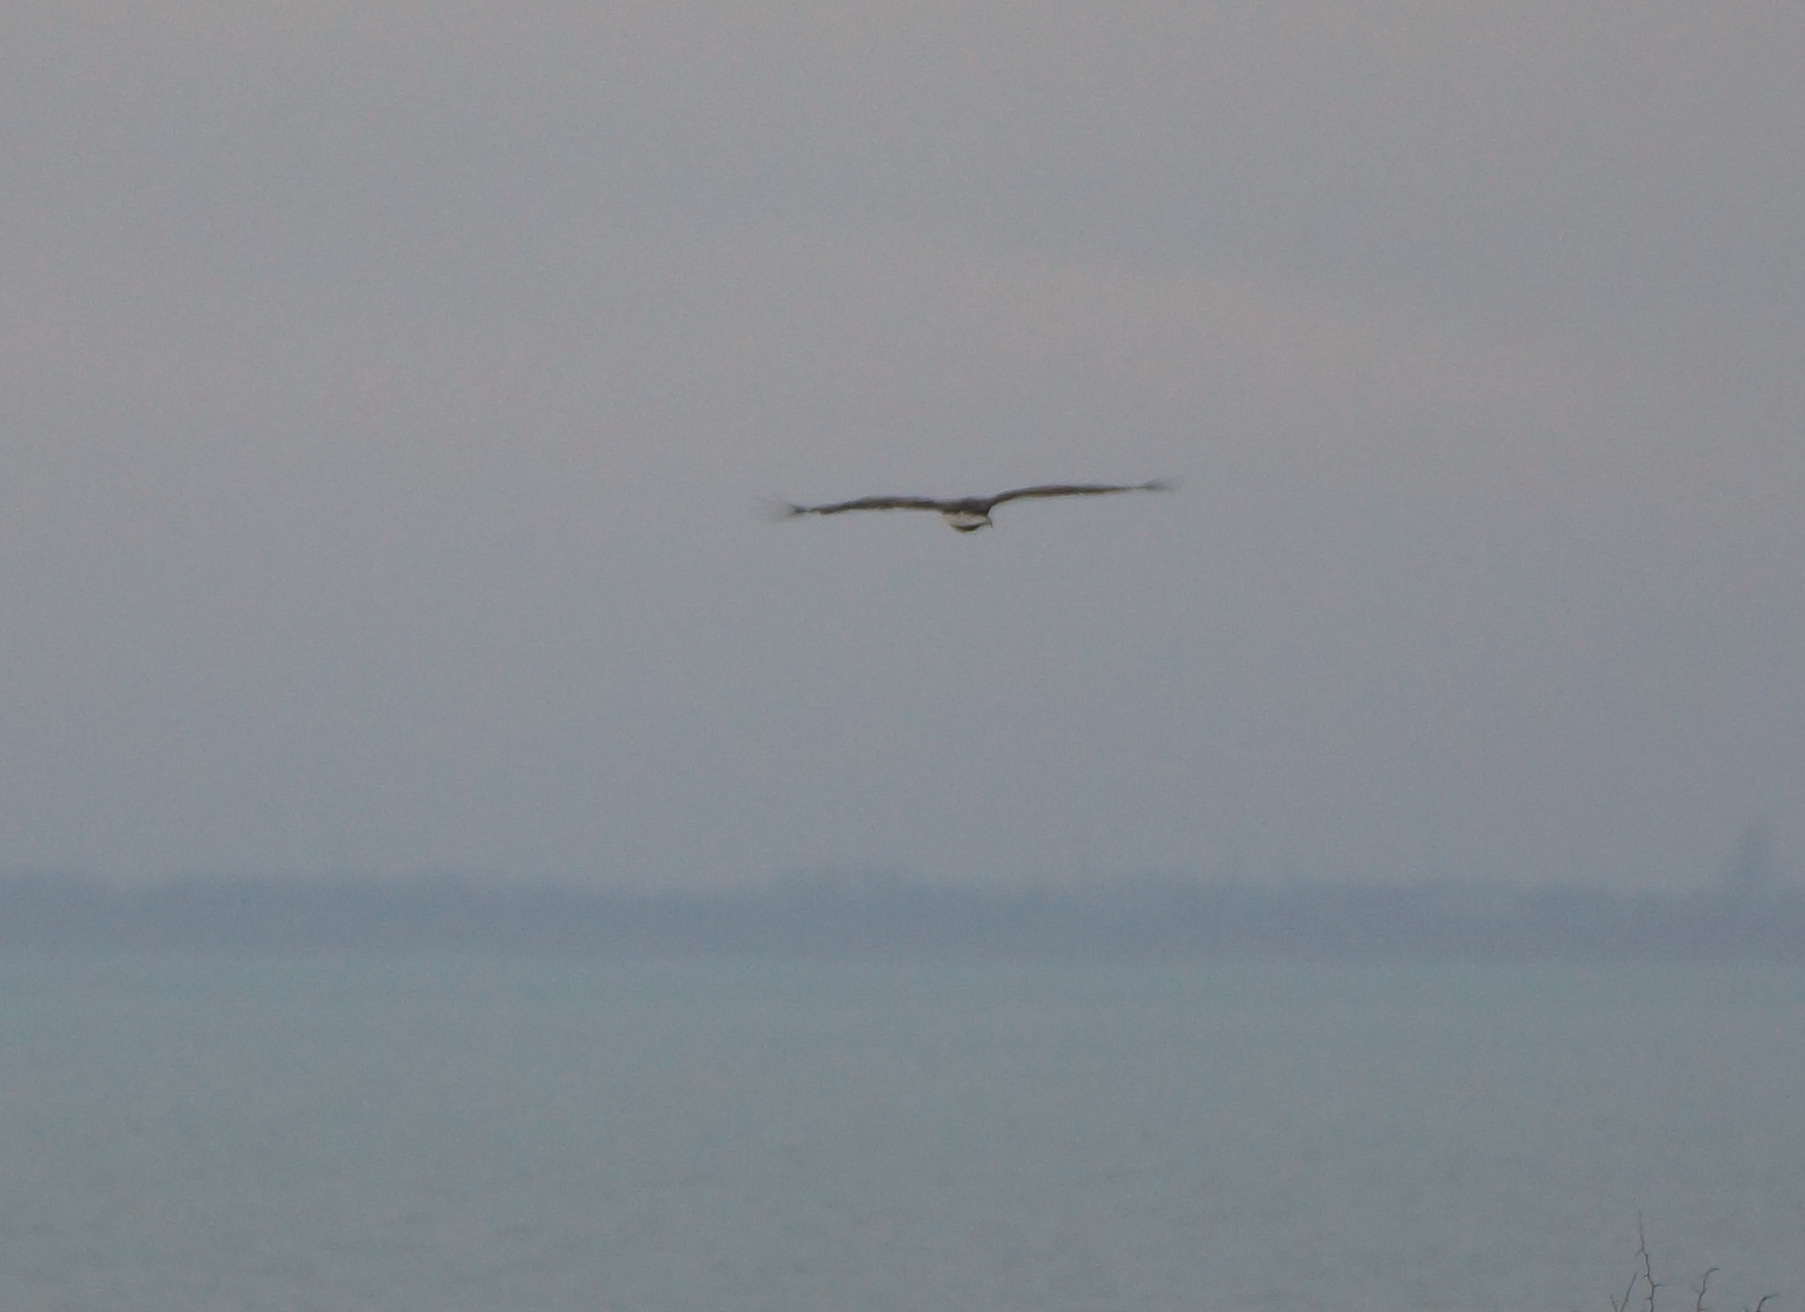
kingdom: Animalia
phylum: Chordata
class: Aves
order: Accipitriformes
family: Accipitridae
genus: Haliaeetus
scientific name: Haliaeetus albicilla
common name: White-tailed eagle
